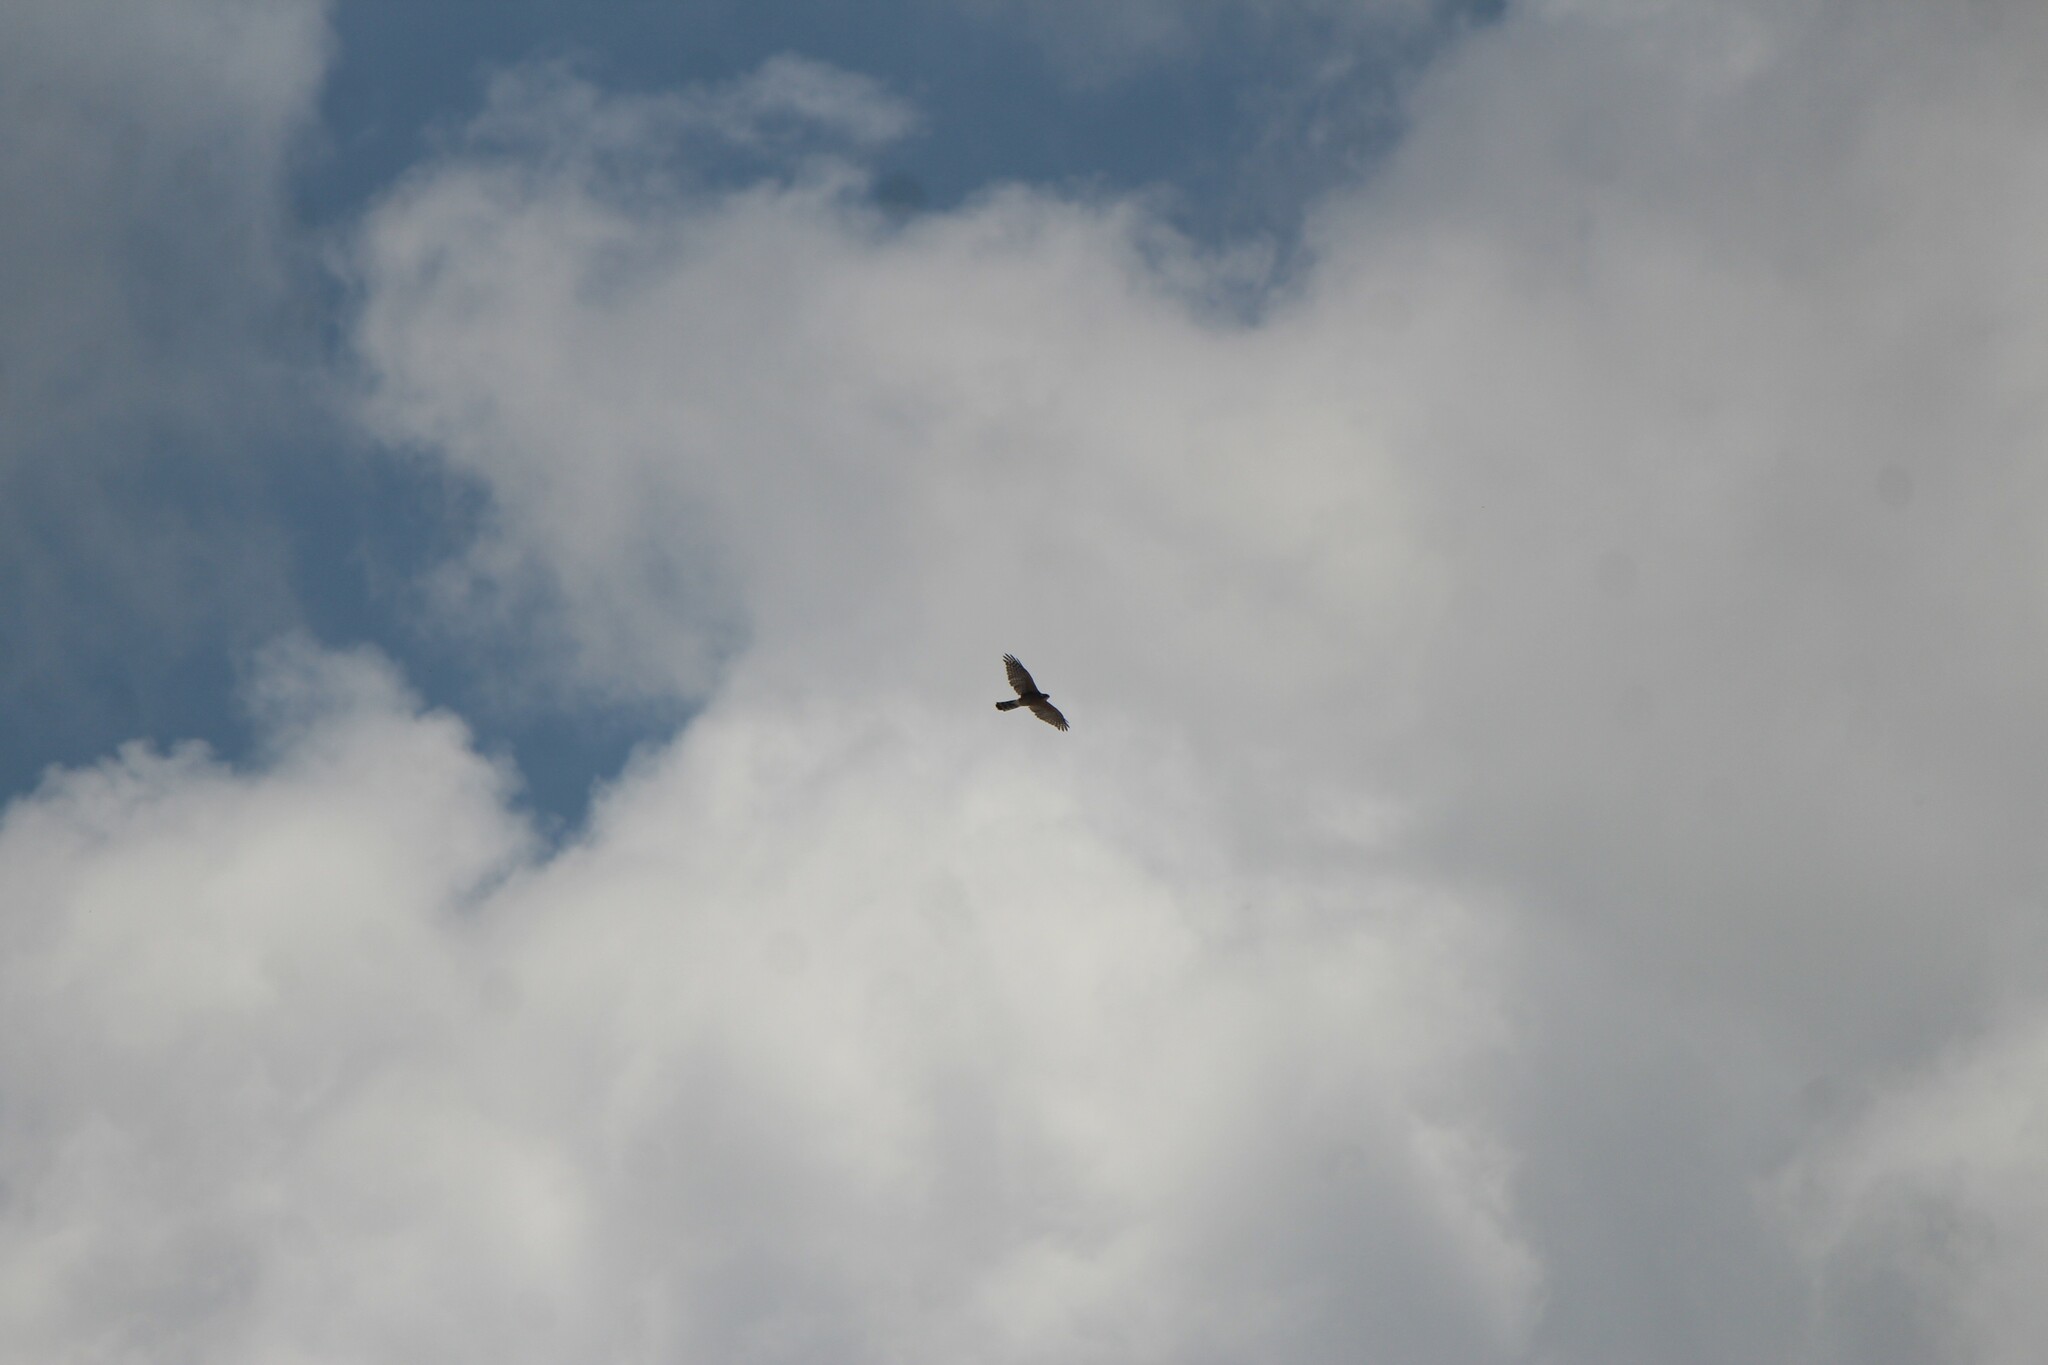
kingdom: Animalia
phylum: Chordata
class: Aves
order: Accipitriformes
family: Accipitridae
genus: Accipiter
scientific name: Accipiter cooperii
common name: Cooper's hawk
